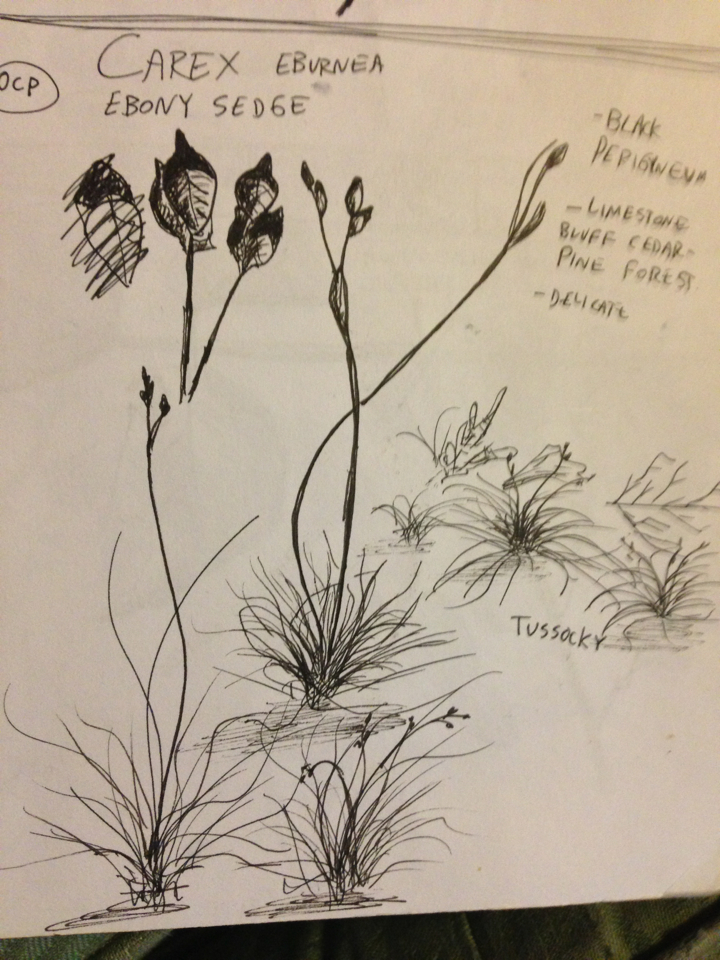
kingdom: Plantae
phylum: Tracheophyta
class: Liliopsida
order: Poales
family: Cyperaceae
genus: Carex
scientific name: Carex eburnea
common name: Bristle-leaved sedge
